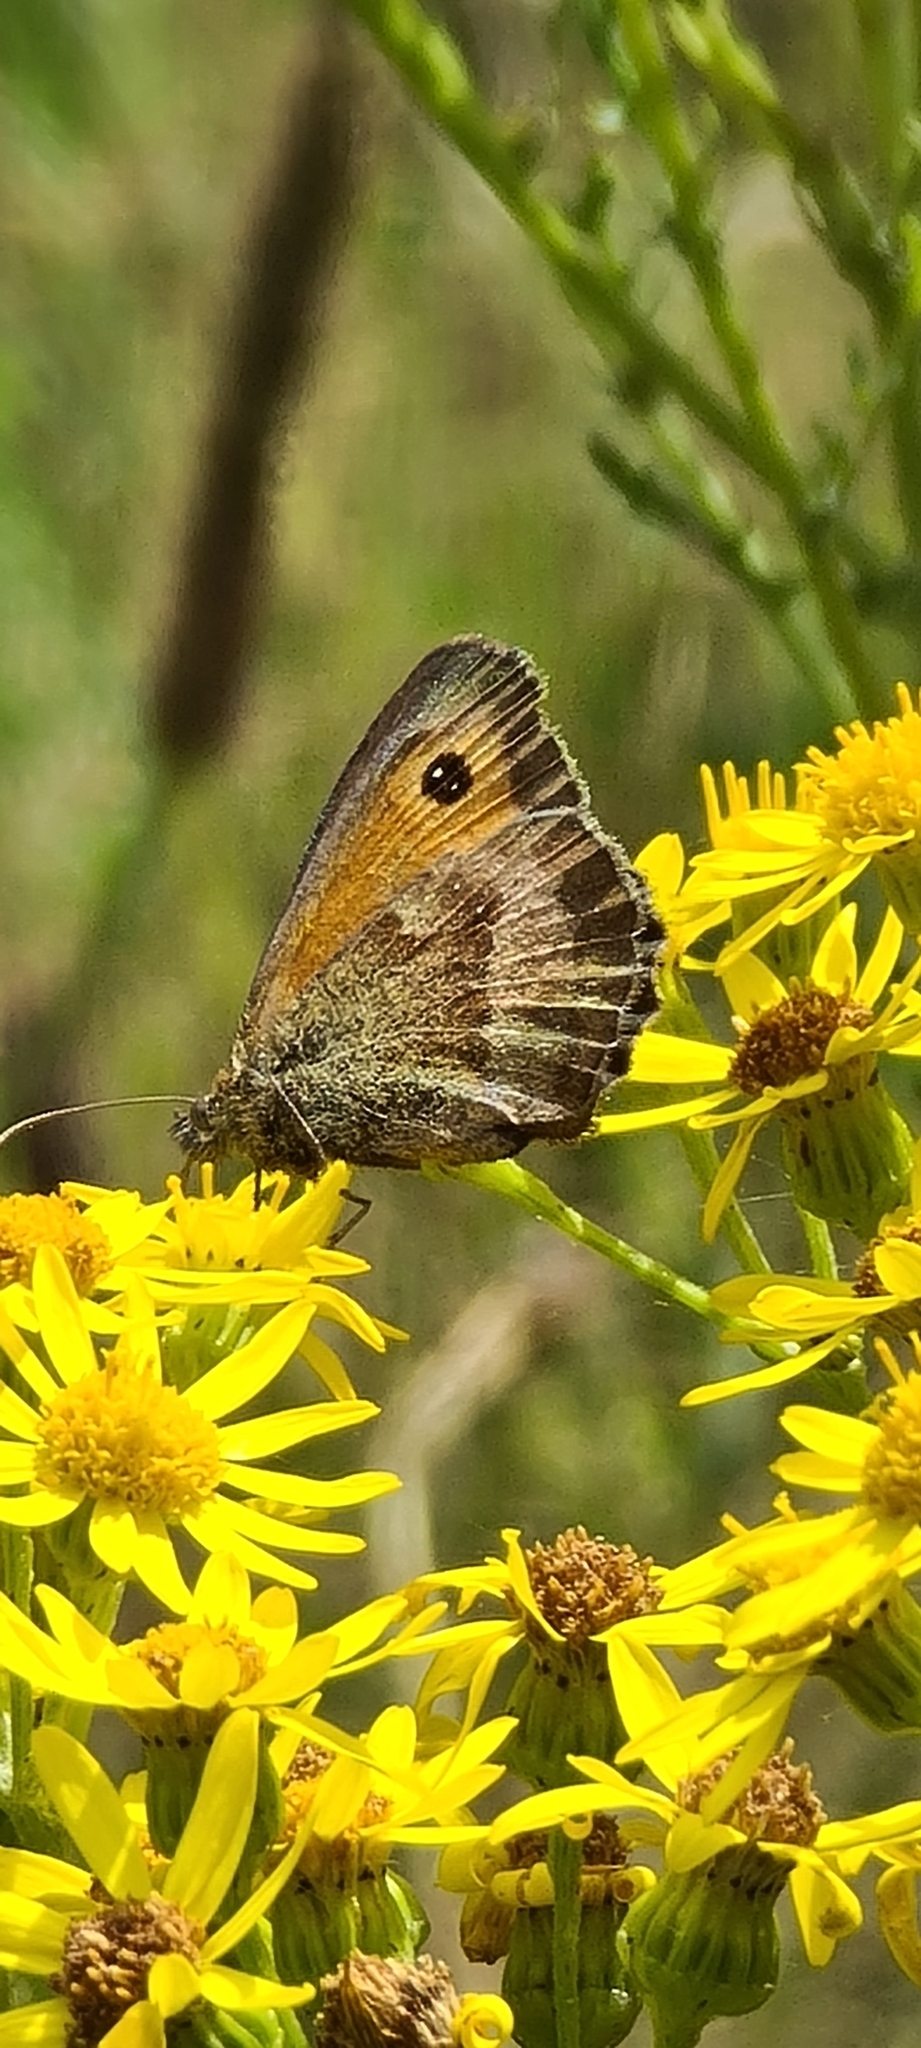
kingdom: Animalia
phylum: Arthropoda
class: Insecta
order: Lepidoptera
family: Nymphalidae
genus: Pyronia
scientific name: Pyronia tithonus
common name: Gatekeeper
